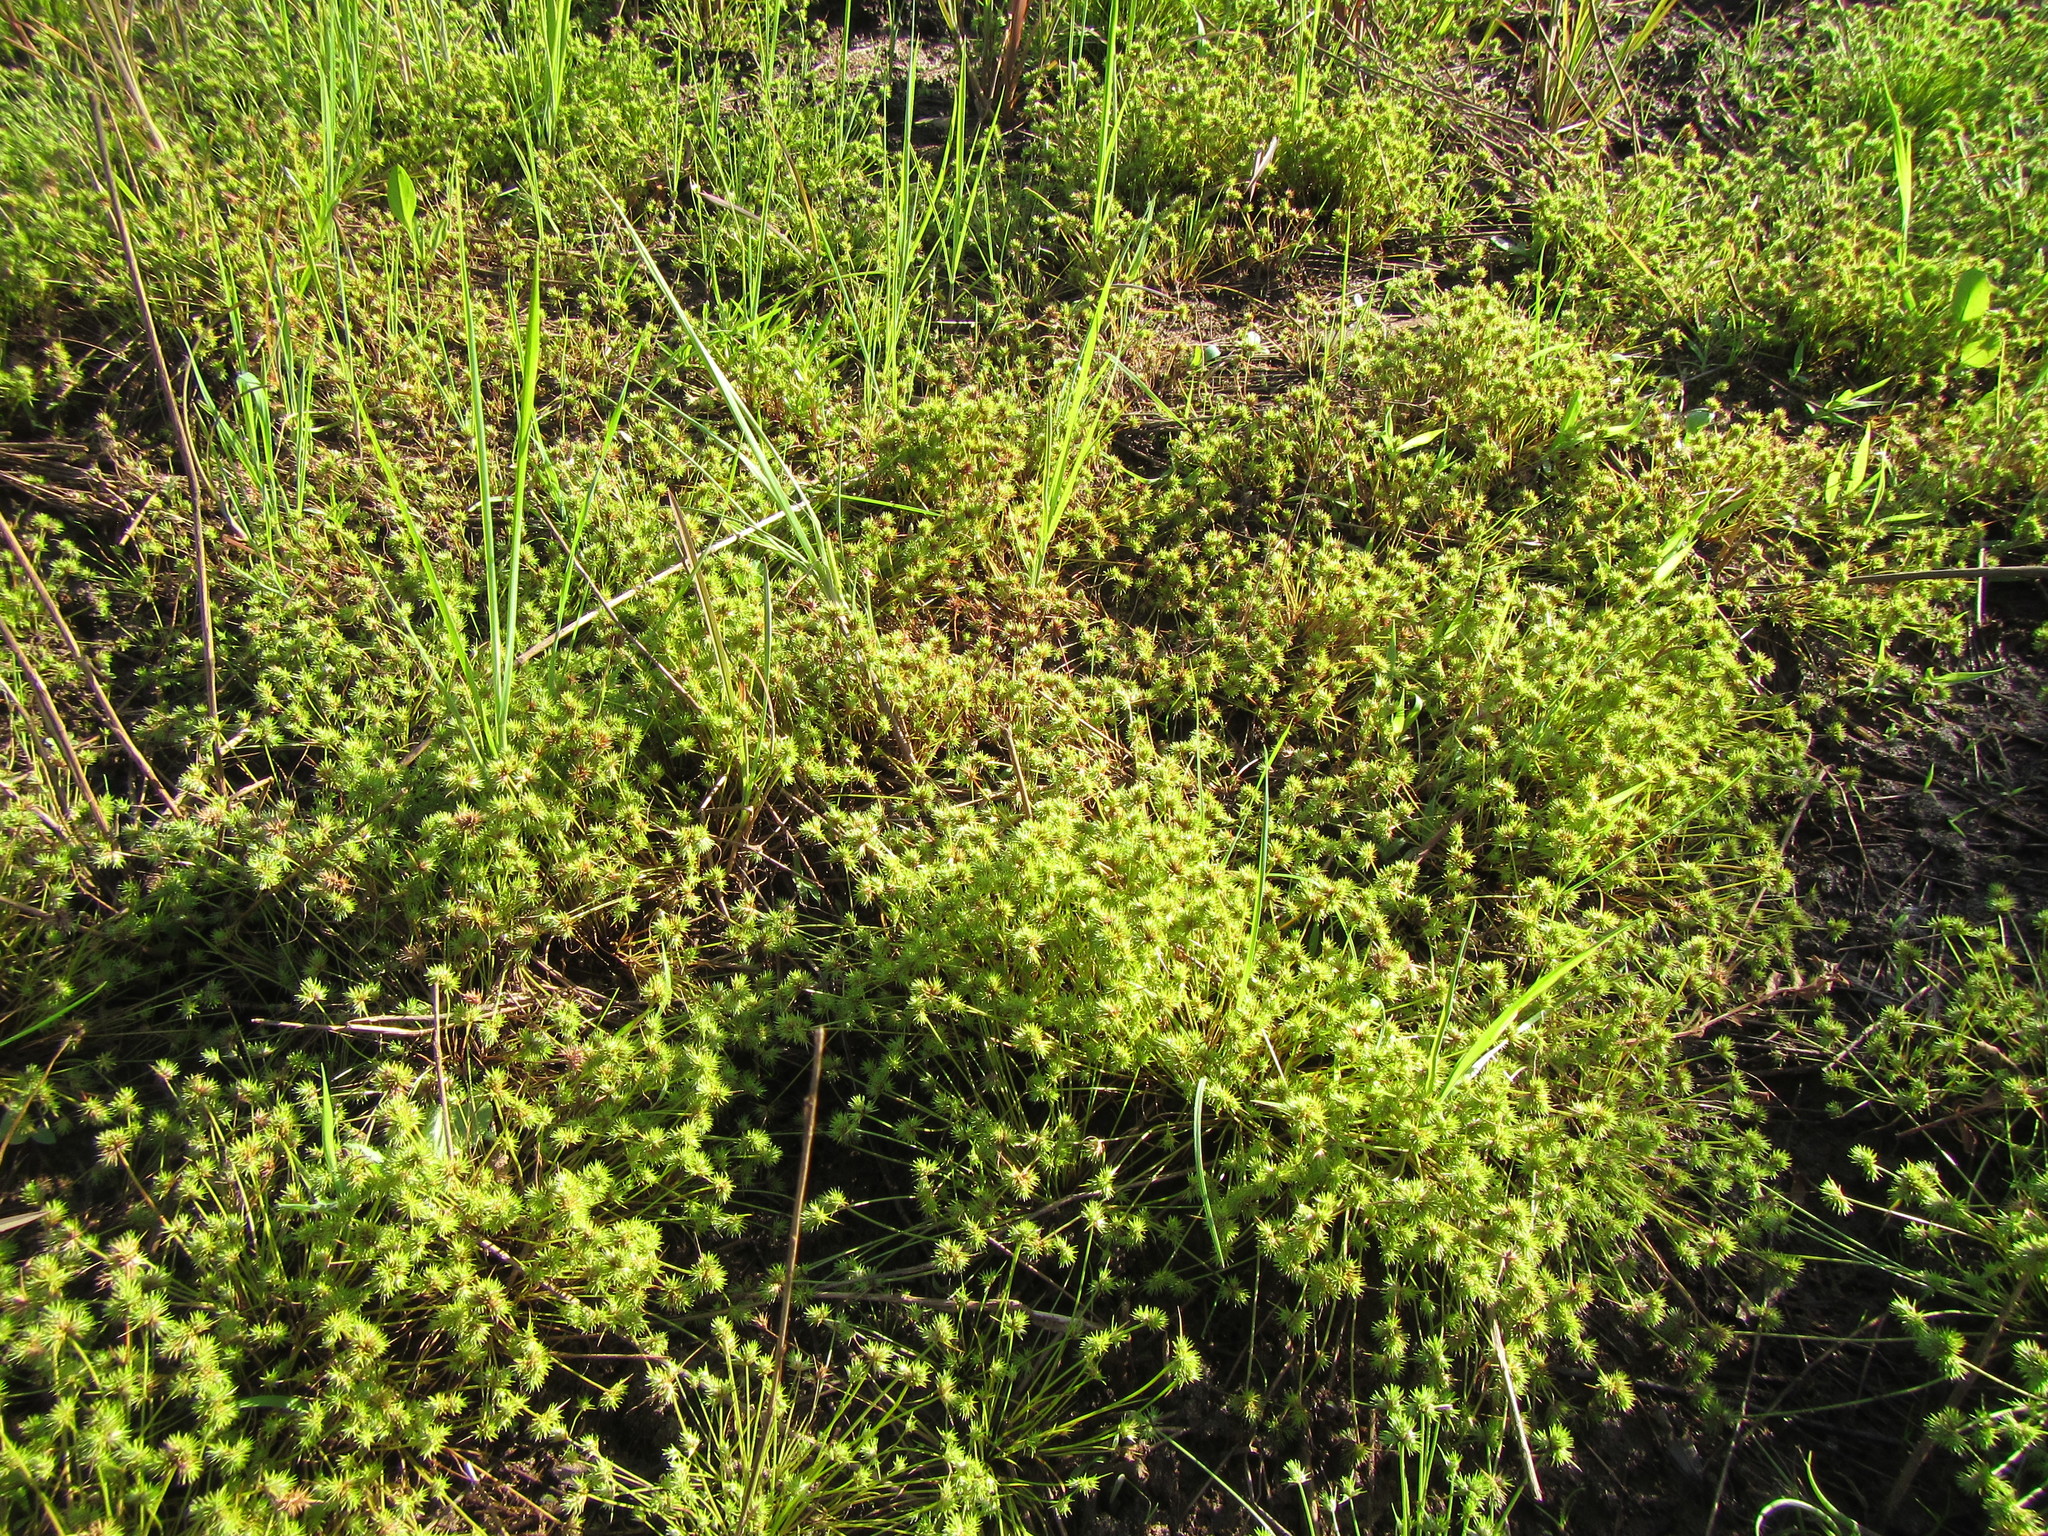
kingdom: Plantae
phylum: Tracheophyta
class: Liliopsida
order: Poales
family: Cyperaceae
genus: Isolepis
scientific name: Isolepis hystrix
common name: Bottlebrush bulrush
